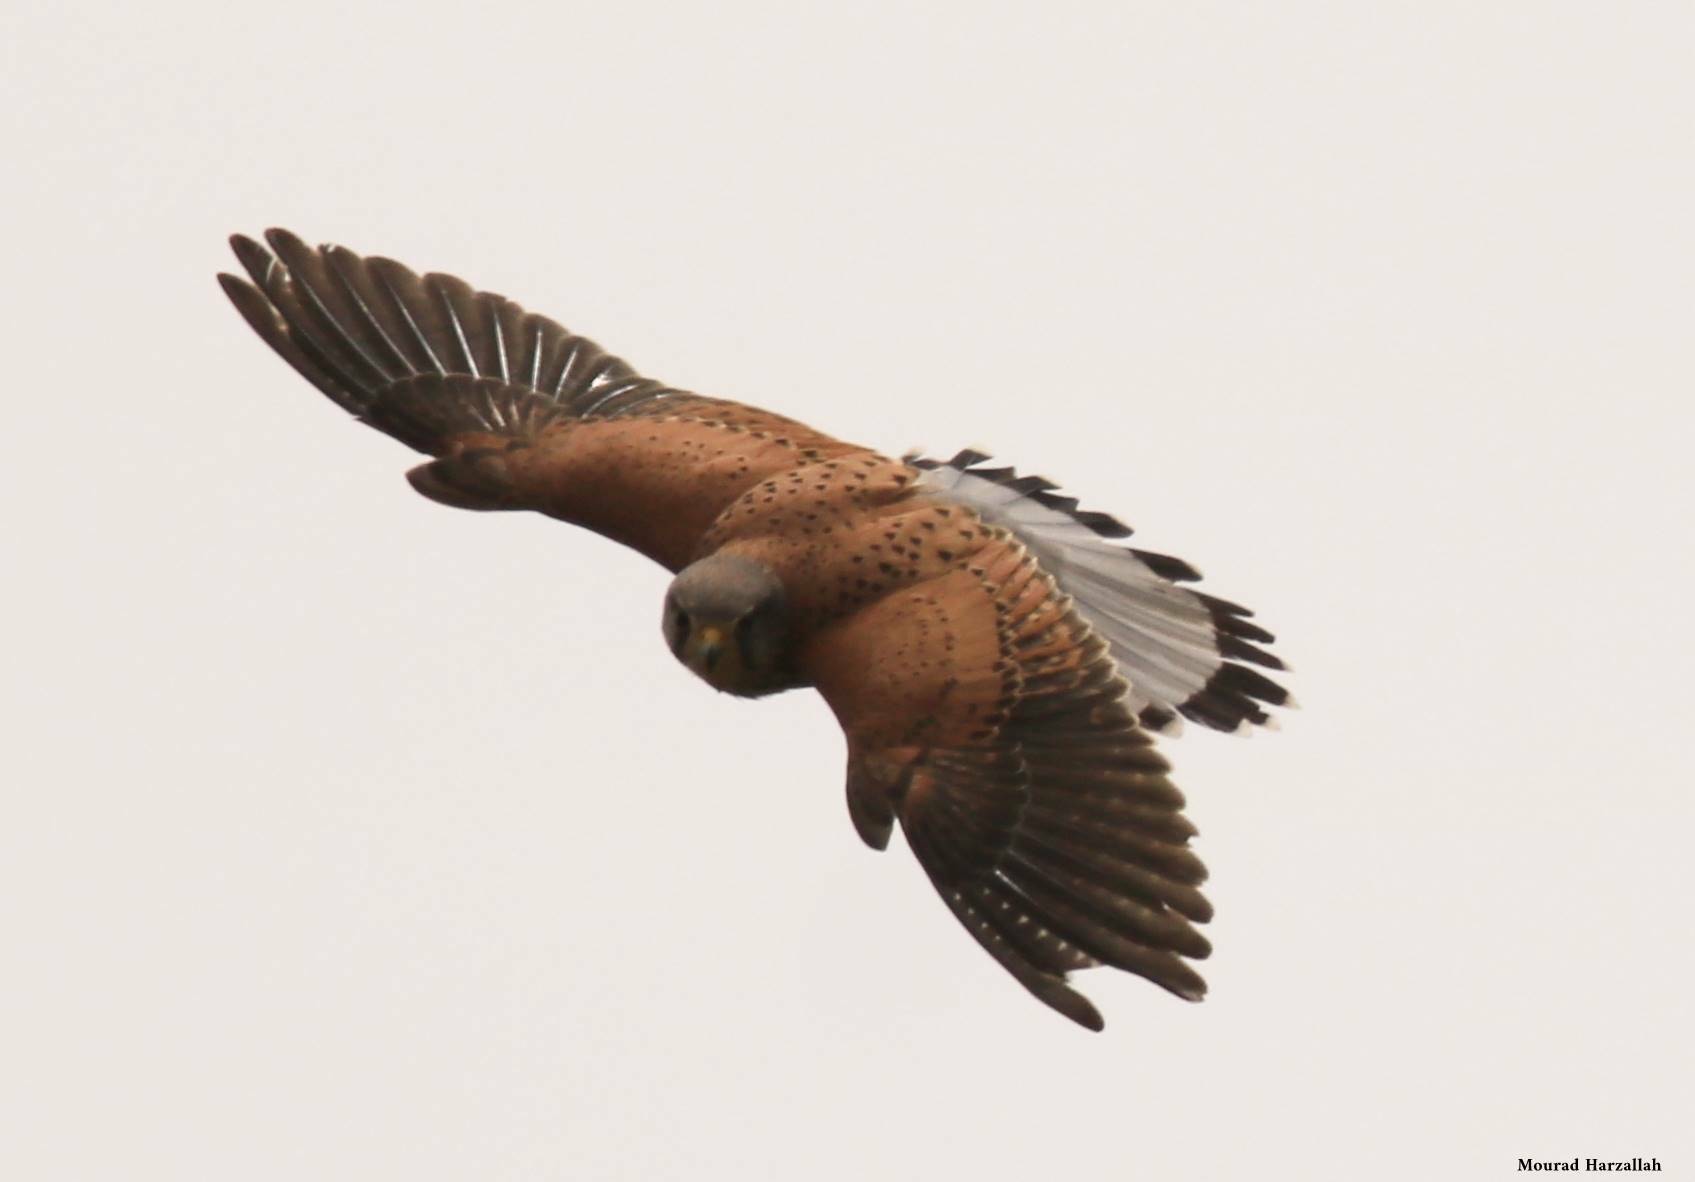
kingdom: Animalia
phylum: Chordata
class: Aves
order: Falconiformes
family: Falconidae
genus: Falco
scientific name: Falco tinnunculus
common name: Common kestrel
